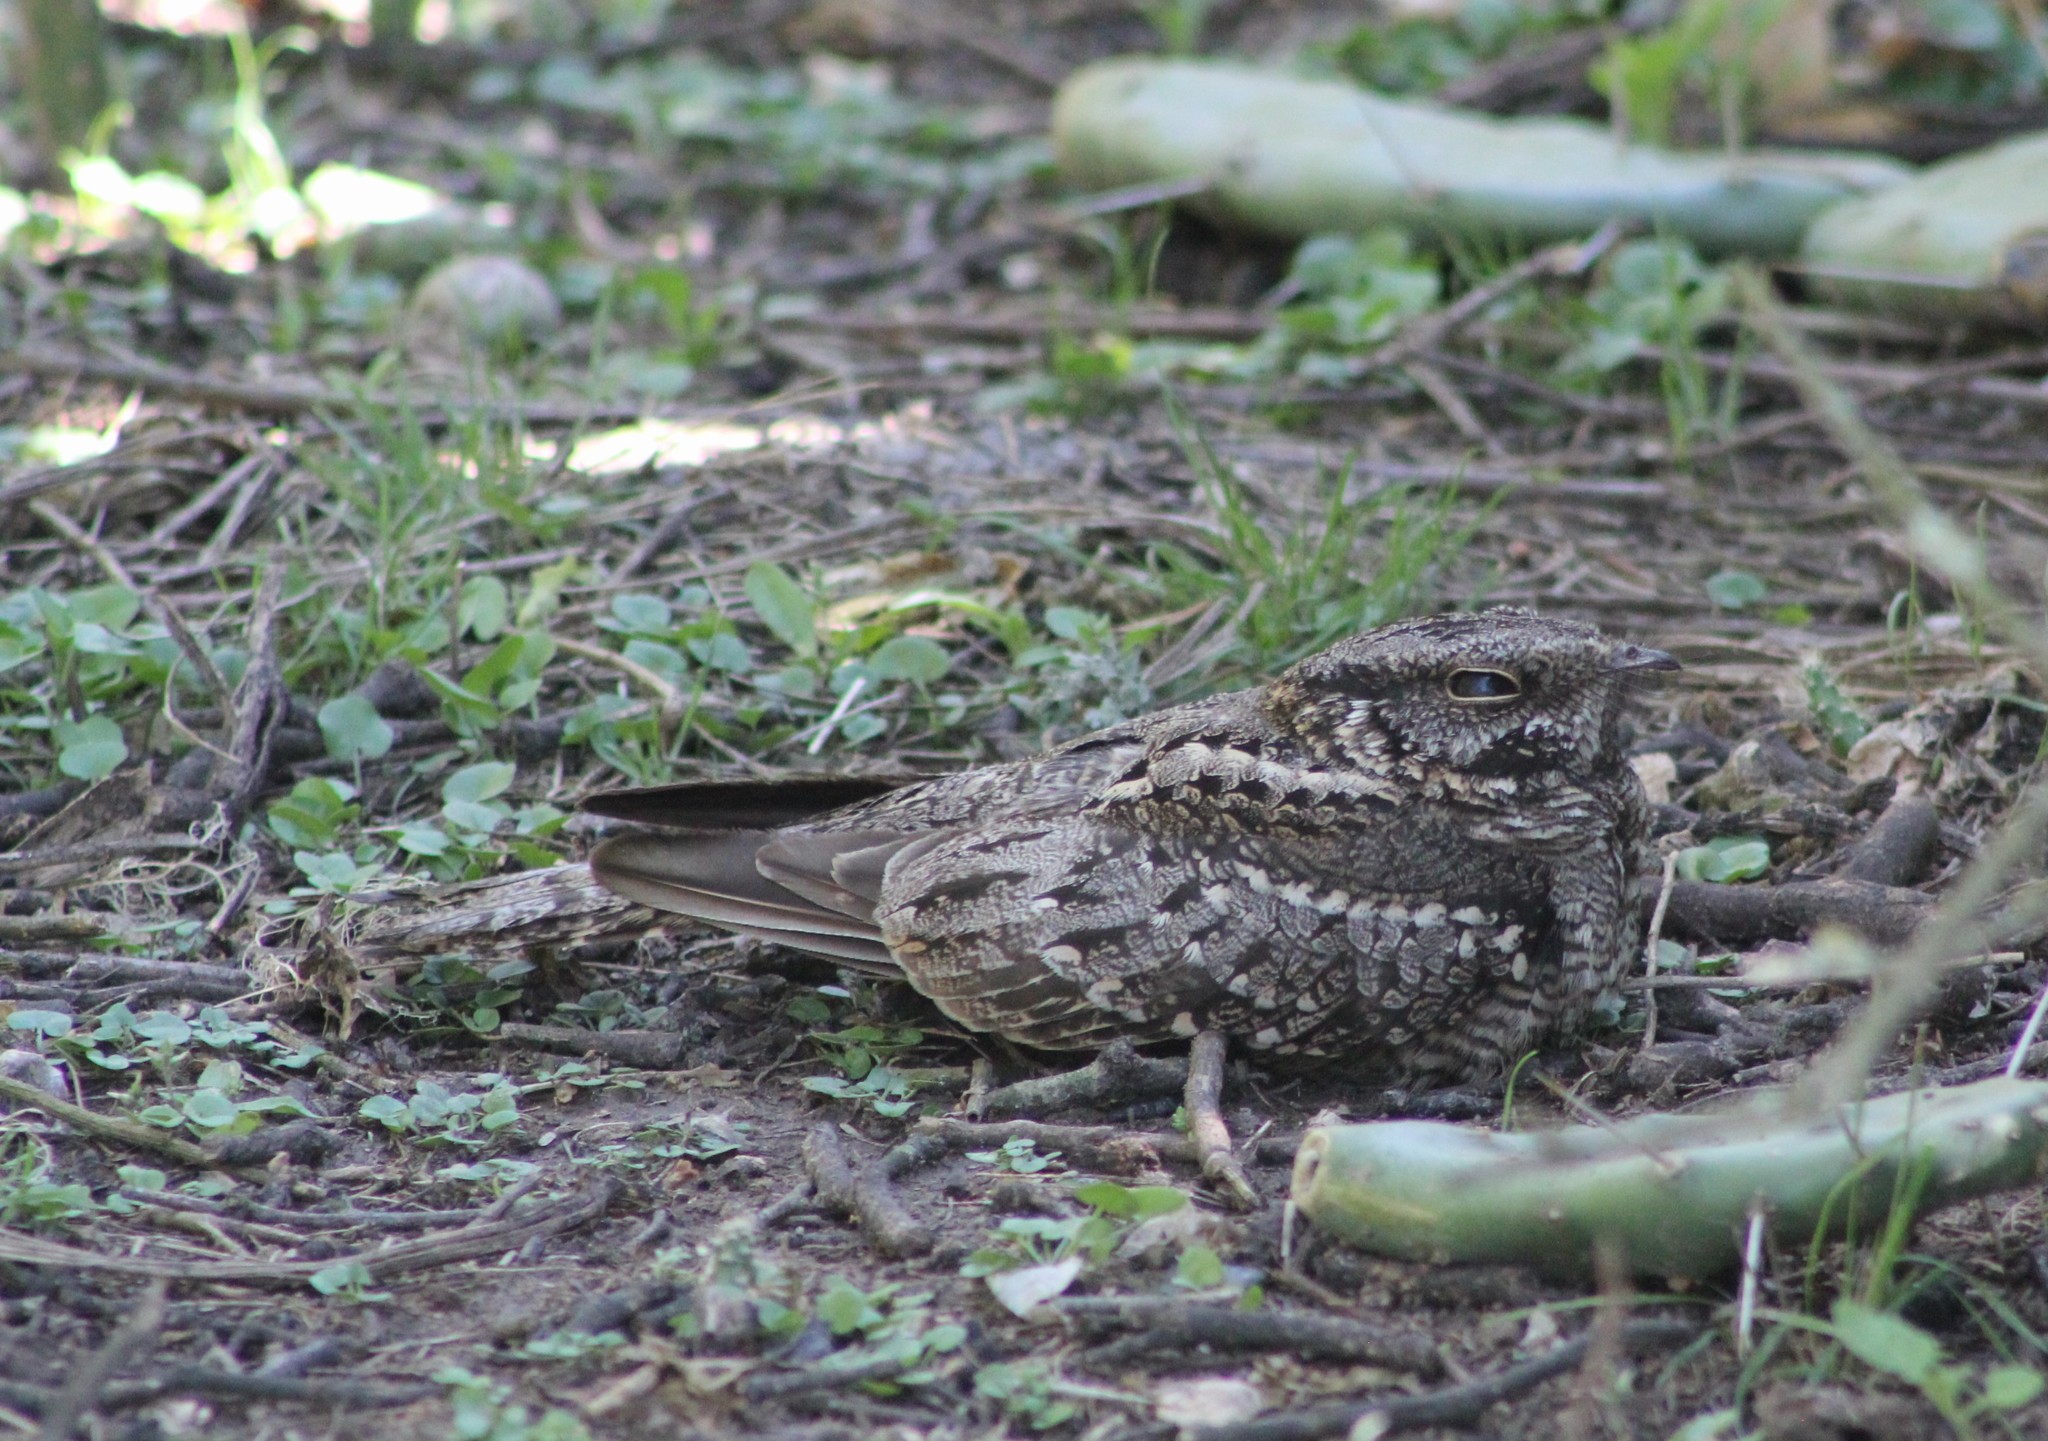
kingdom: Animalia
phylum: Chordata
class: Aves
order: Caprimulgiformes
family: Caprimulgidae
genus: Hydropsalis
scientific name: Hydropsalis torquata
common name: Scissor-tailed nightjar
